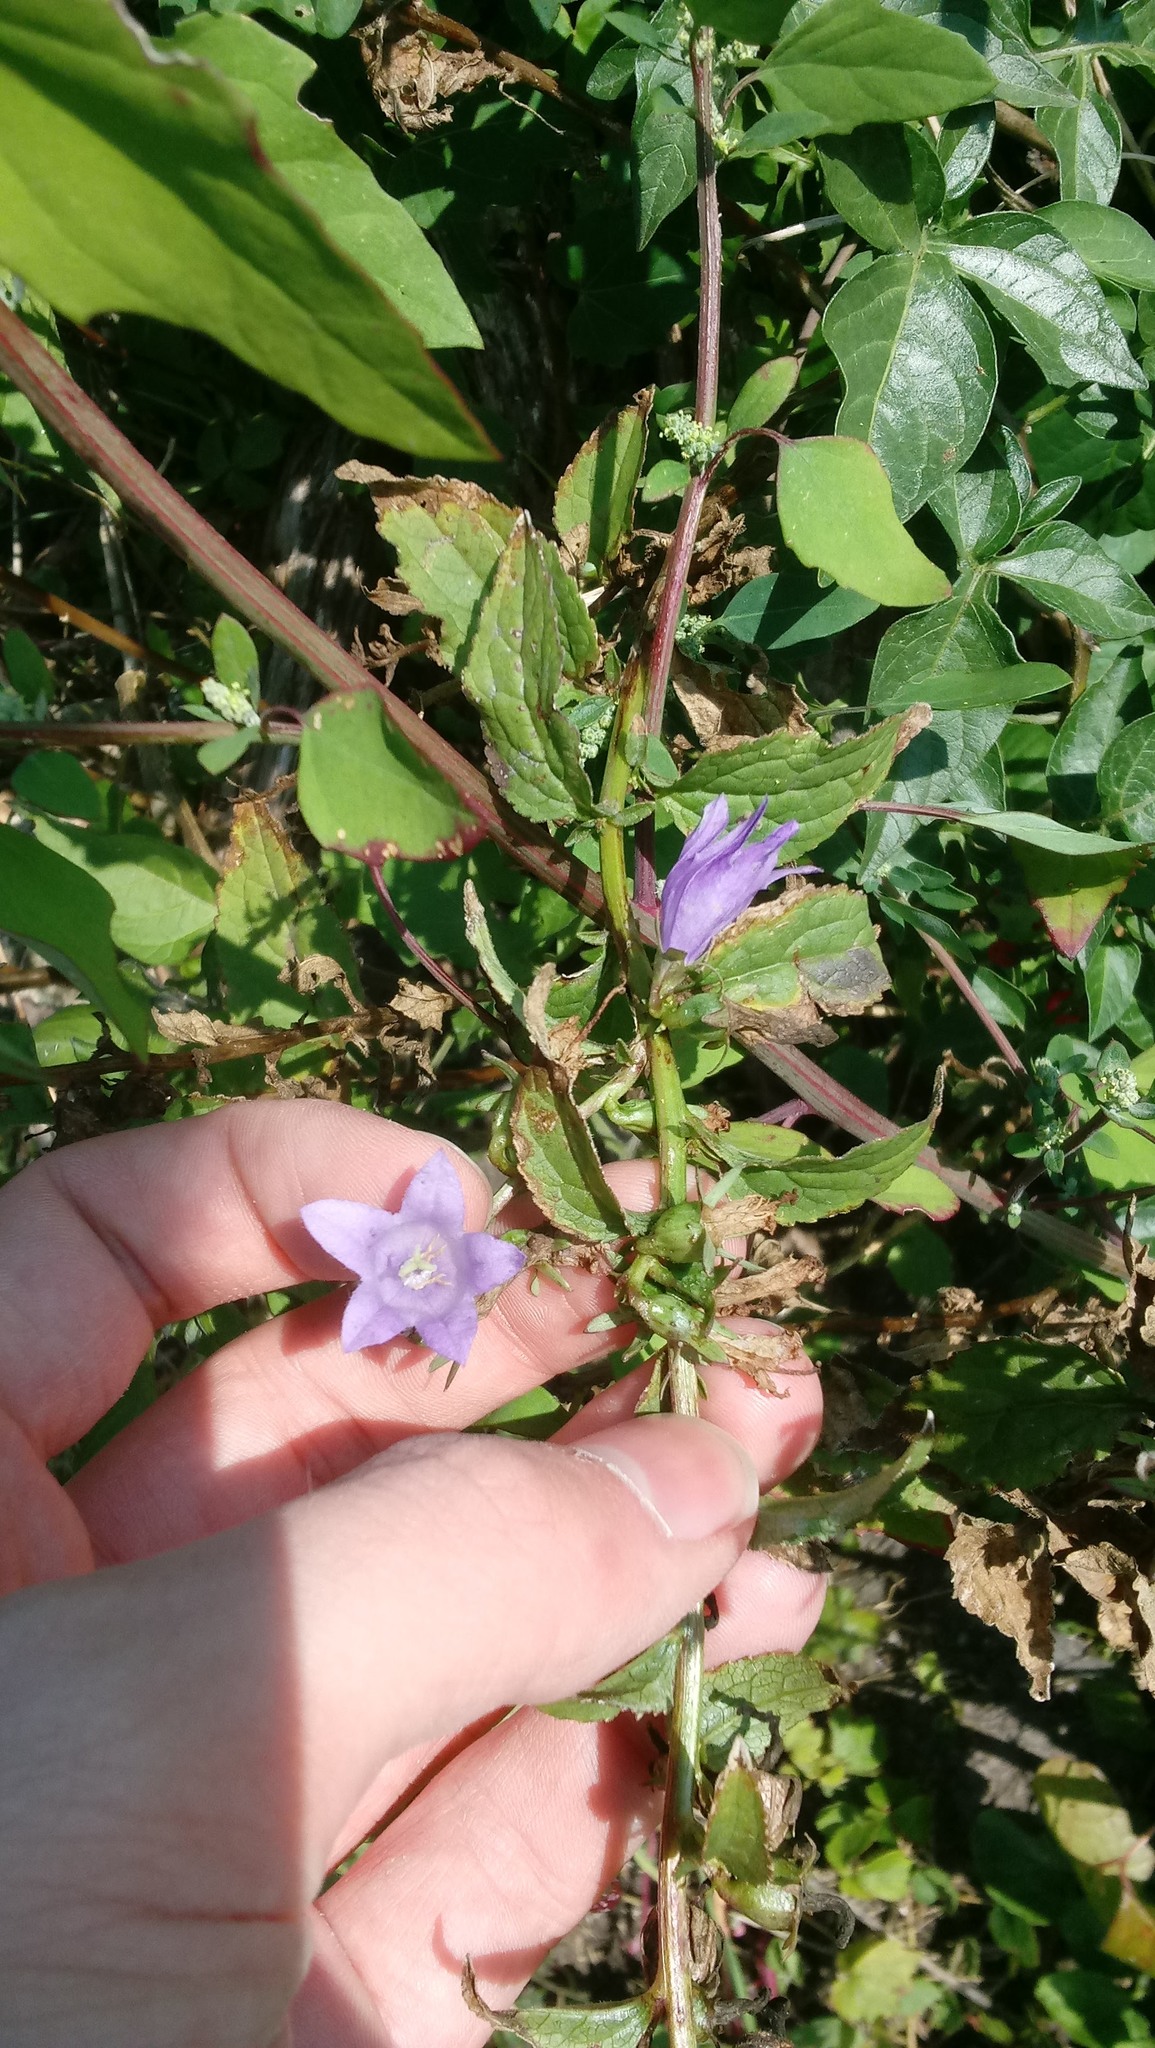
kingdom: Plantae
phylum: Tracheophyta
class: Magnoliopsida
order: Asterales
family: Campanulaceae
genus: Campanula
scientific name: Campanula rapunculoides
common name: Creeping bellflower
